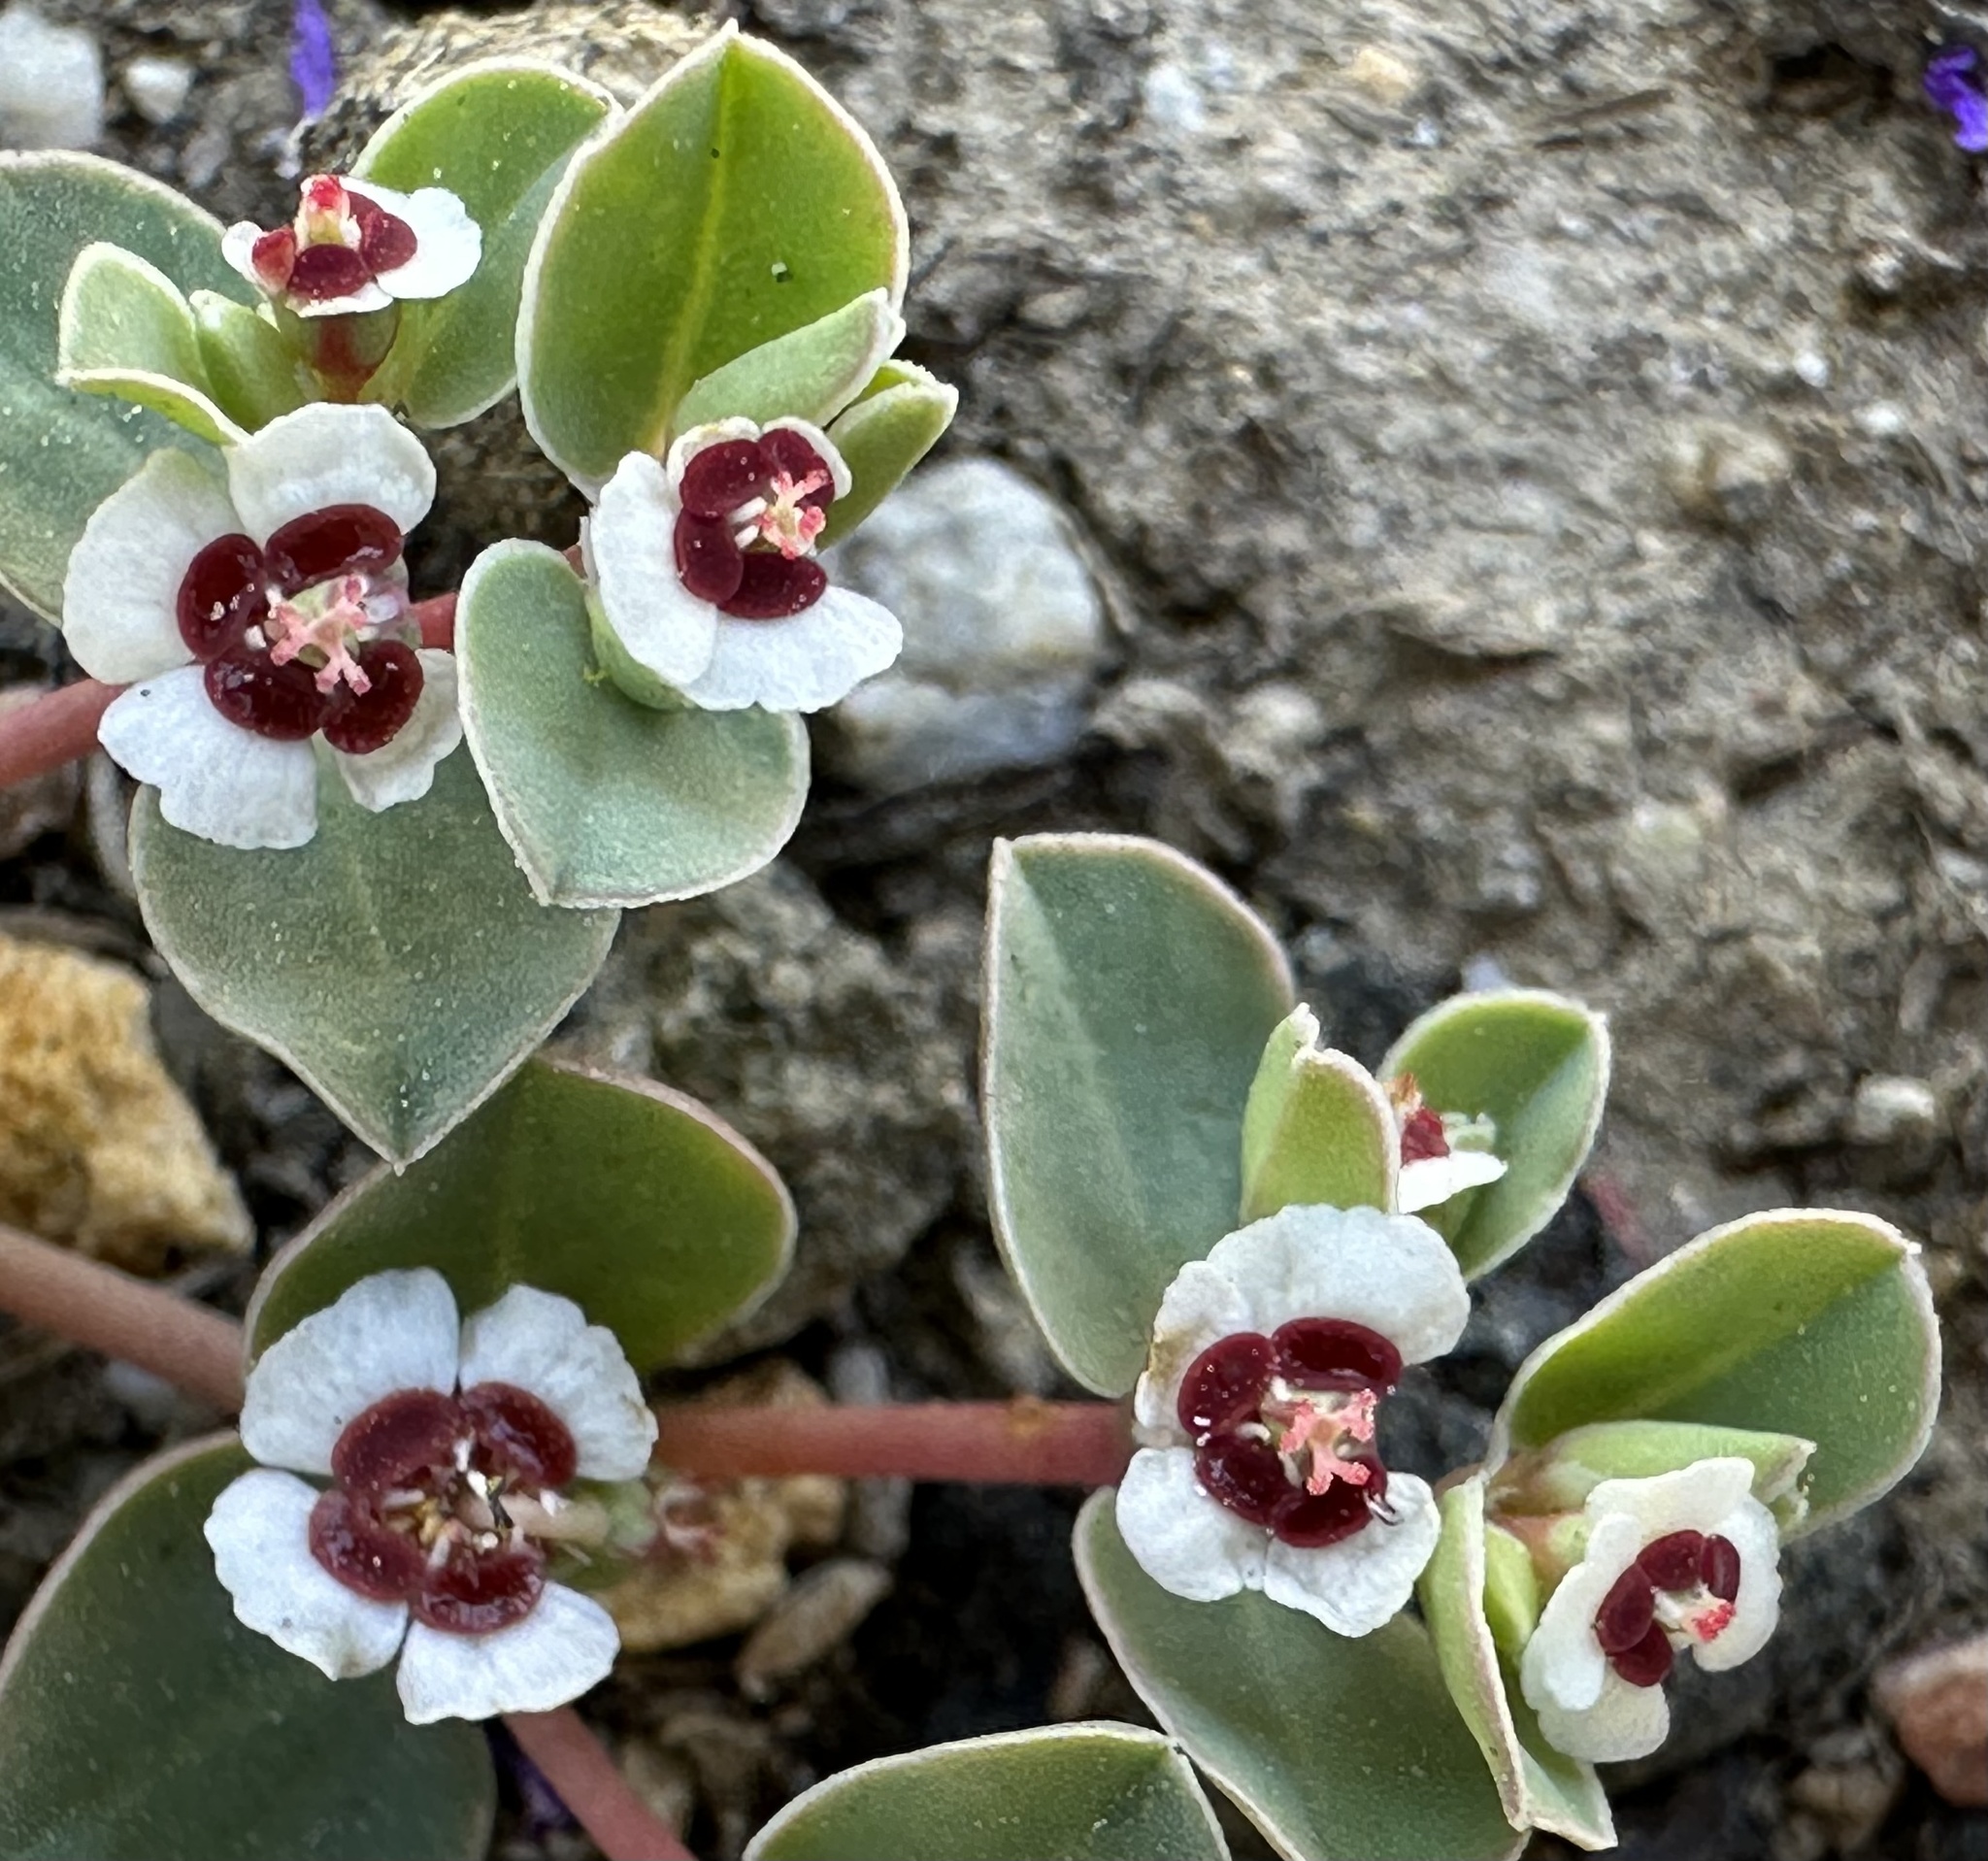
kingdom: Plantae
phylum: Tracheophyta
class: Magnoliopsida
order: Malpighiales
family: Euphorbiaceae
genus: Euphorbia
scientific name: Euphorbia albomarginata
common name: Whitemargin sandmat
